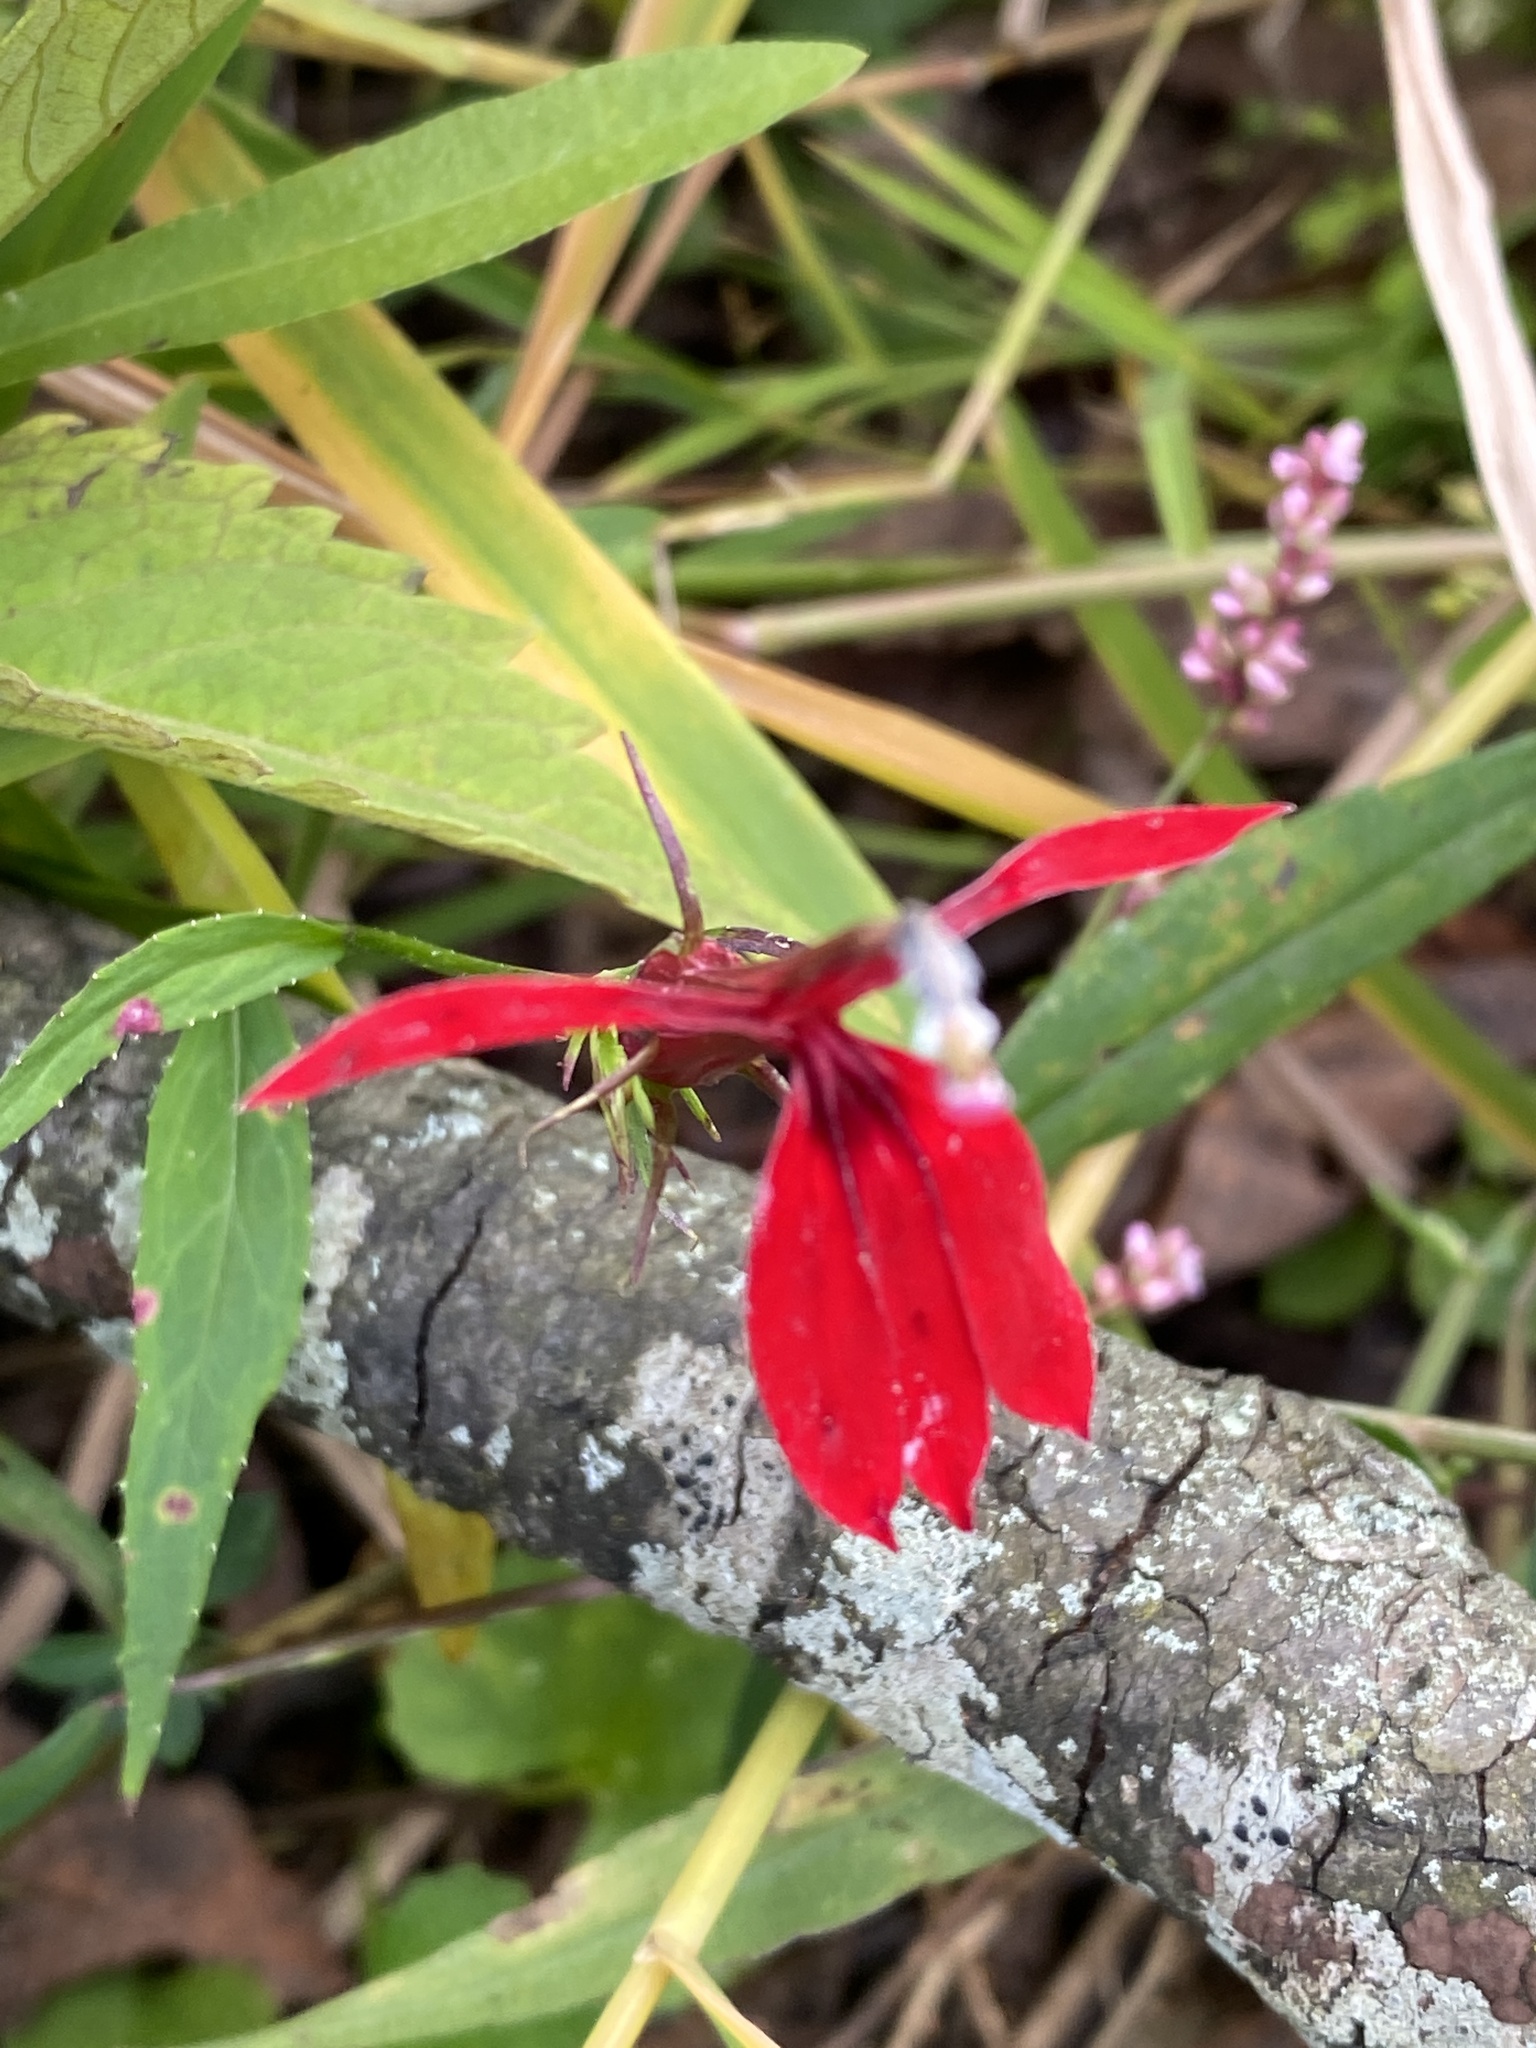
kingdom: Plantae
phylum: Tracheophyta
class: Magnoliopsida
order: Asterales
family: Campanulaceae
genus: Lobelia
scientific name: Lobelia cardinalis
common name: Cardinal flower
